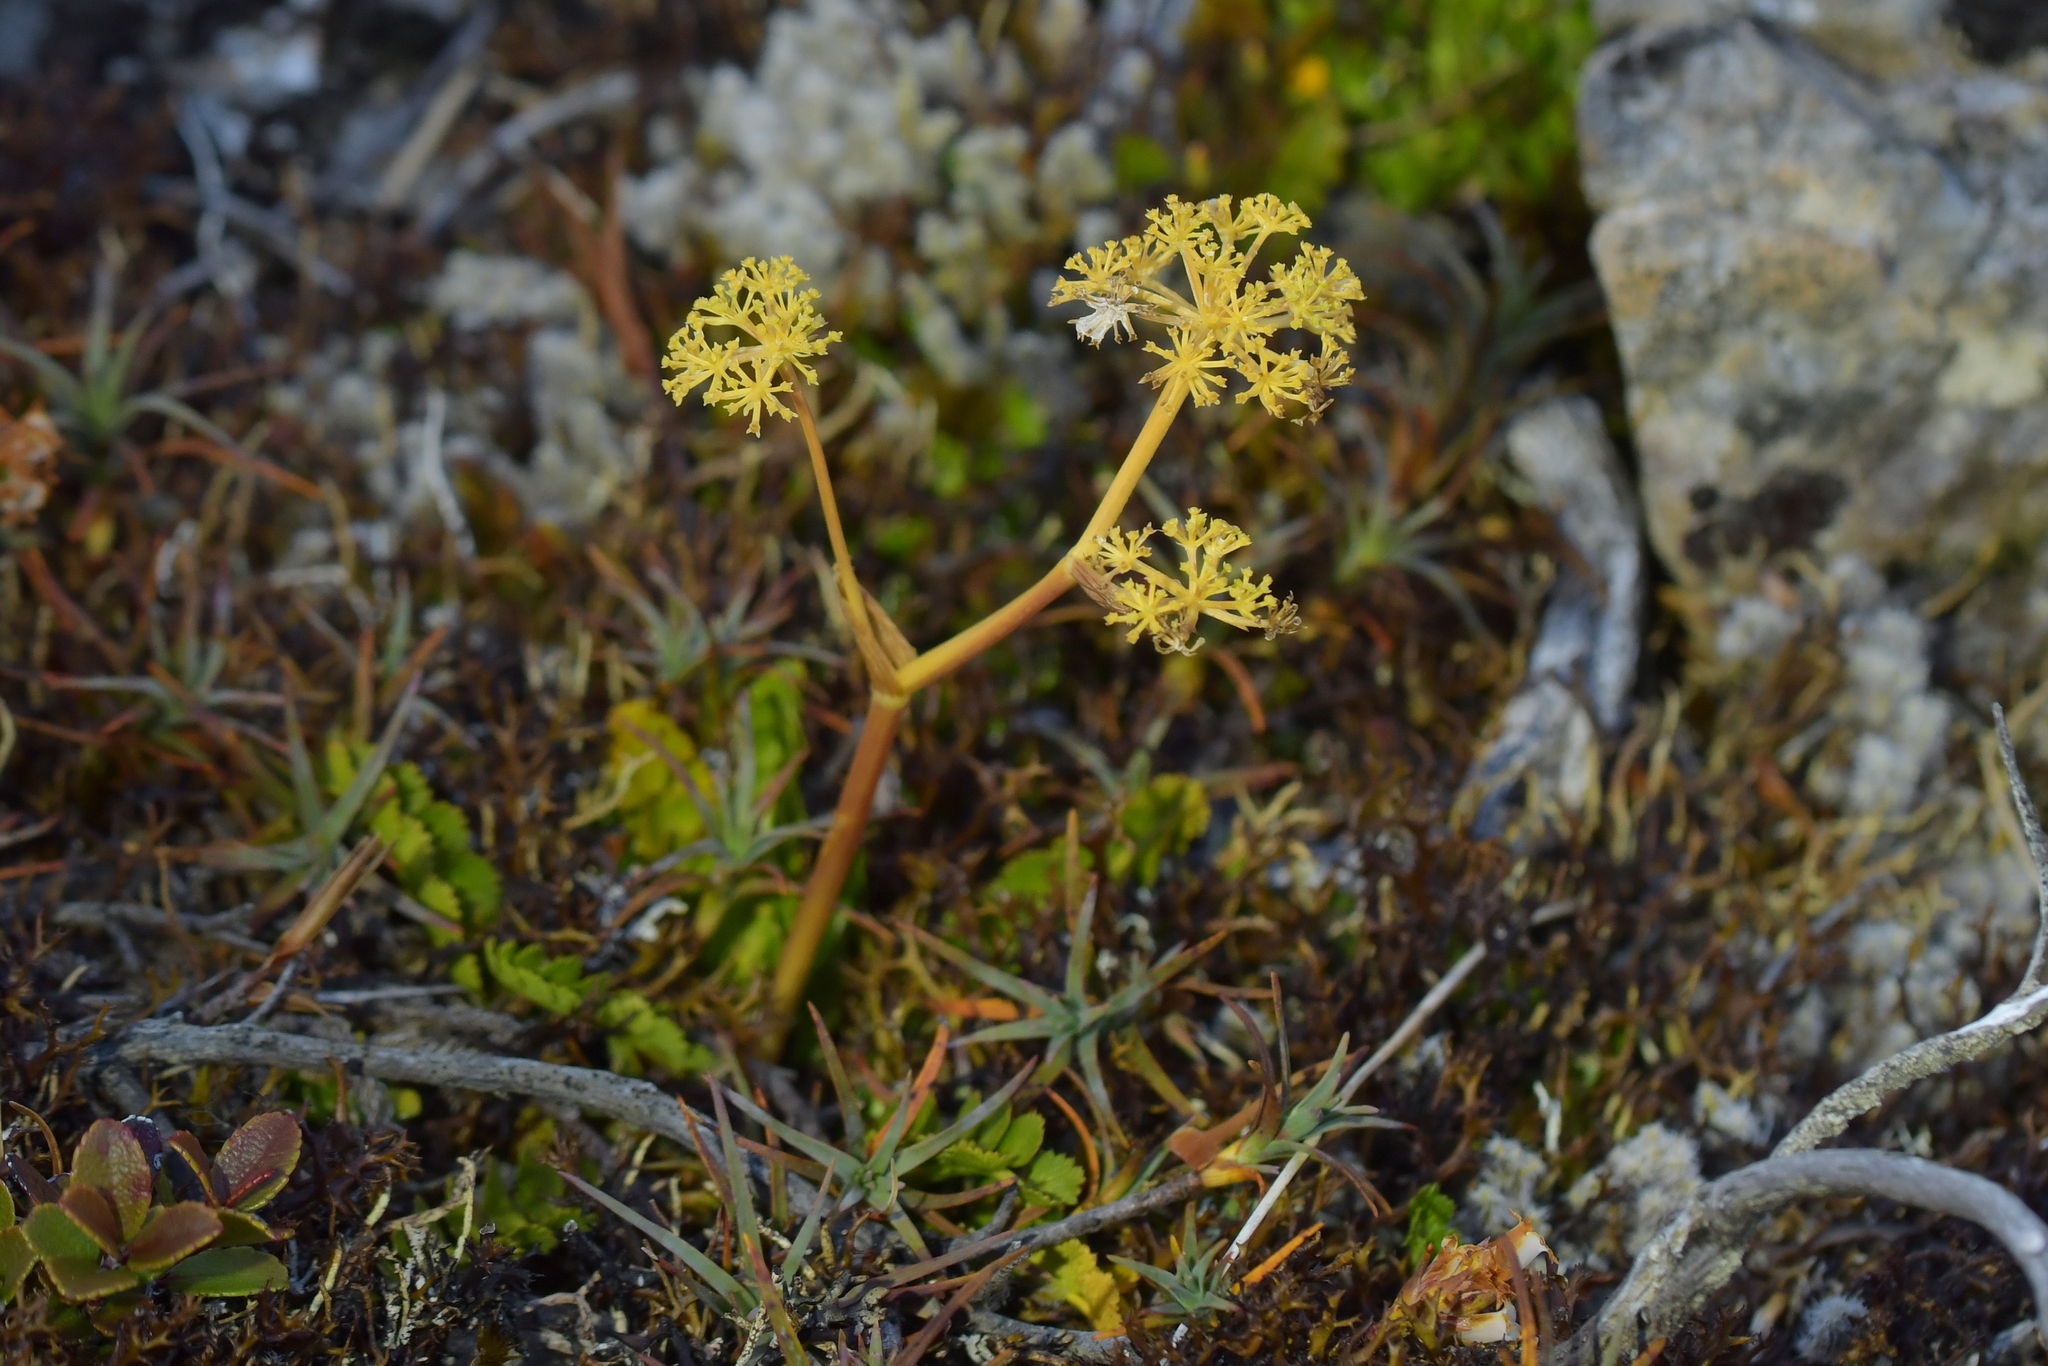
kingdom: Plantae
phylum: Tracheophyta
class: Magnoliopsida
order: Apiales
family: Apiaceae
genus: Anisotome
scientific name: Anisotome aromatica
